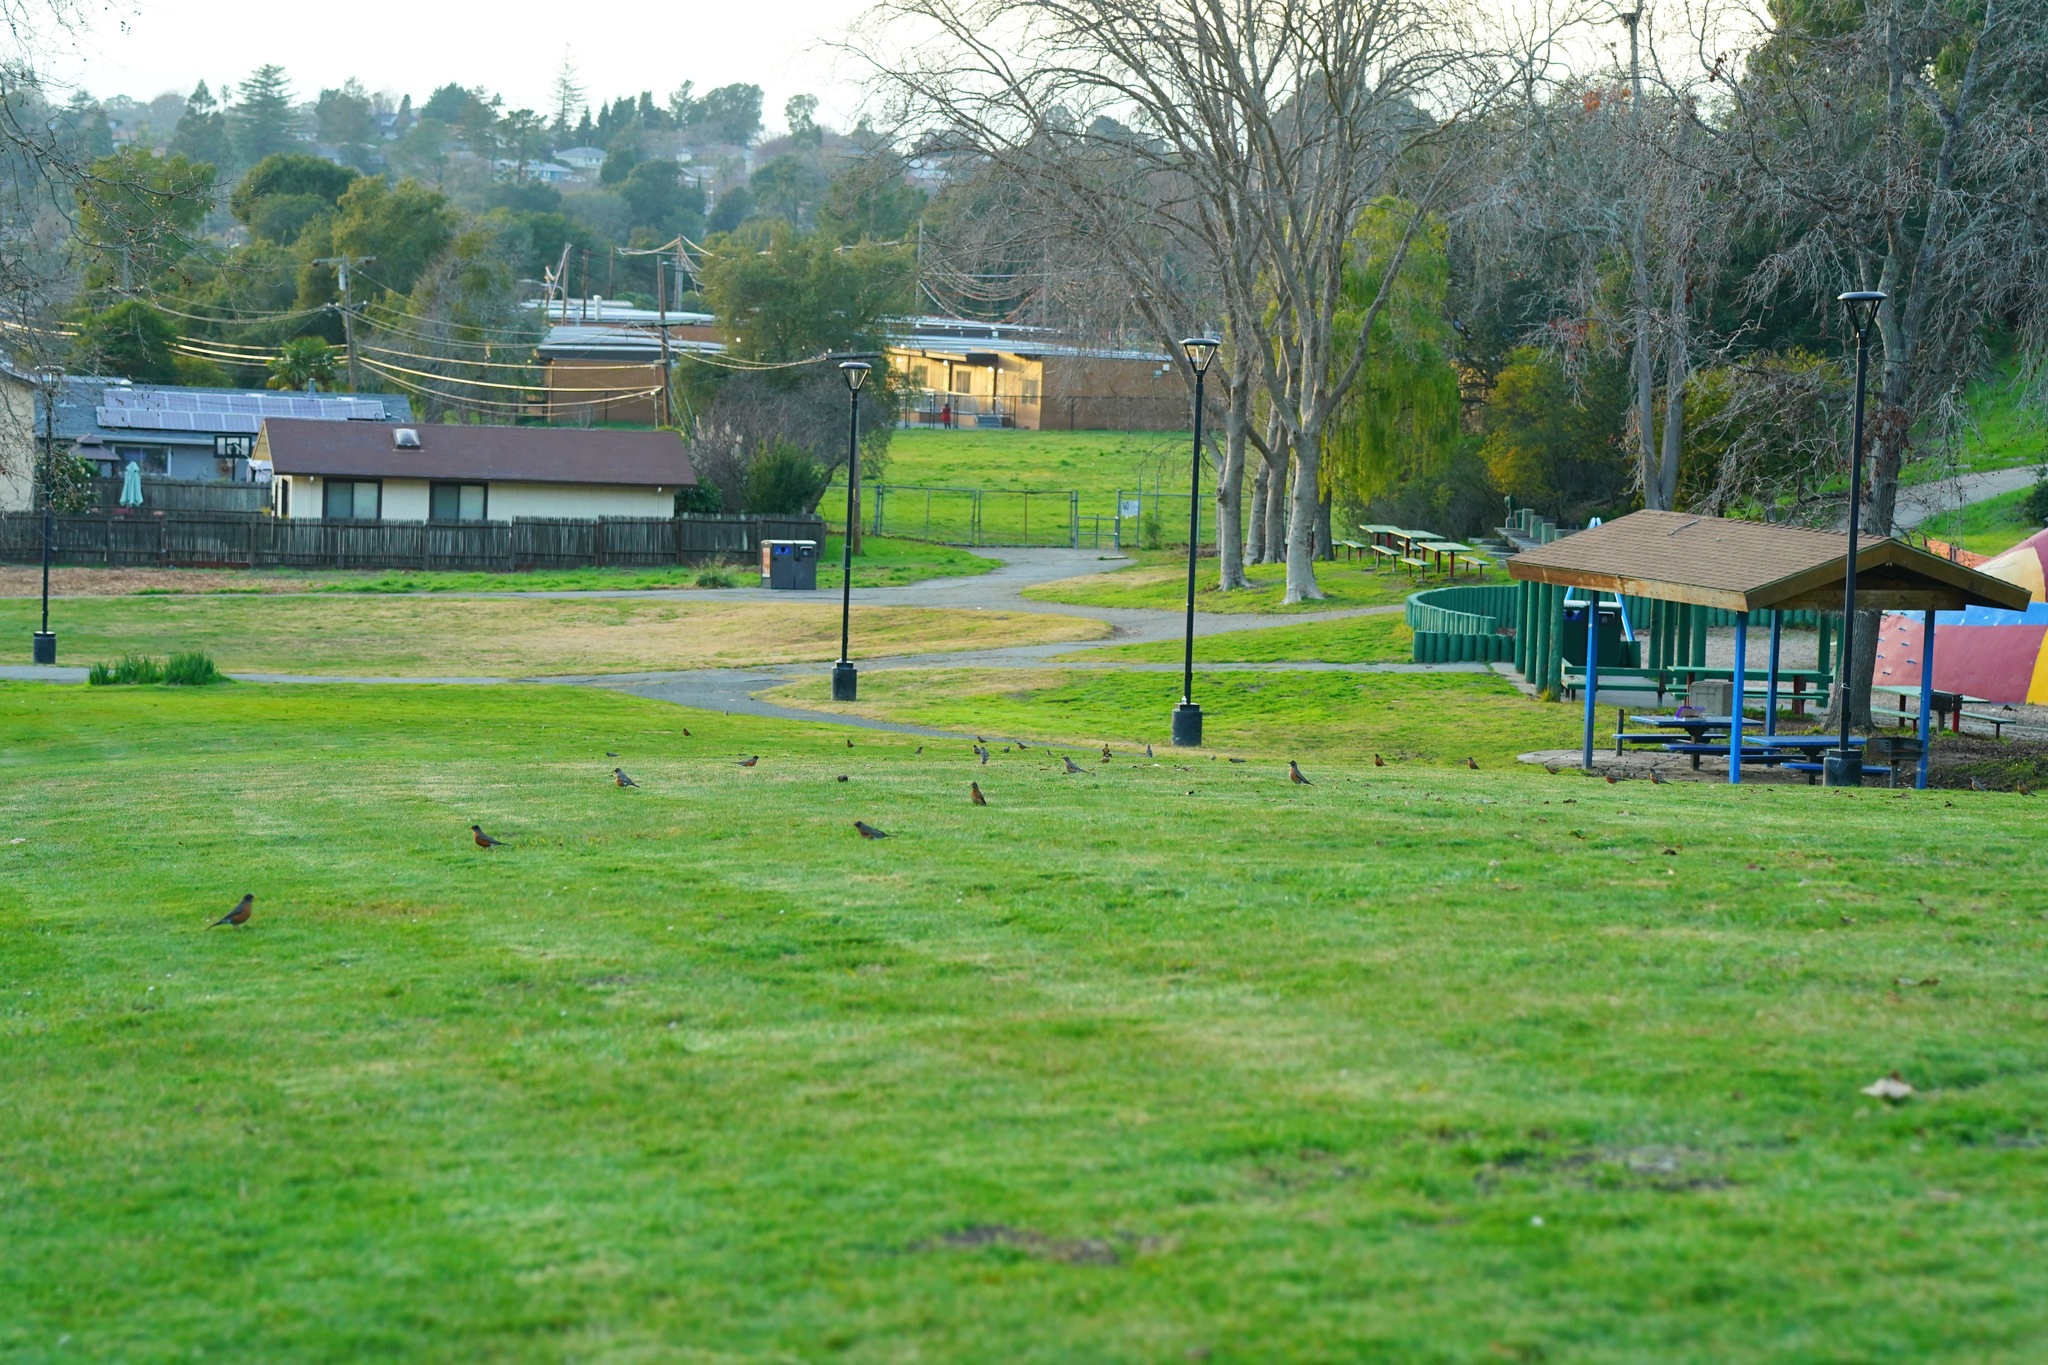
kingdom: Animalia
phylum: Chordata
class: Aves
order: Passeriformes
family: Turdidae
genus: Turdus
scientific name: Turdus migratorius
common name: American robin
